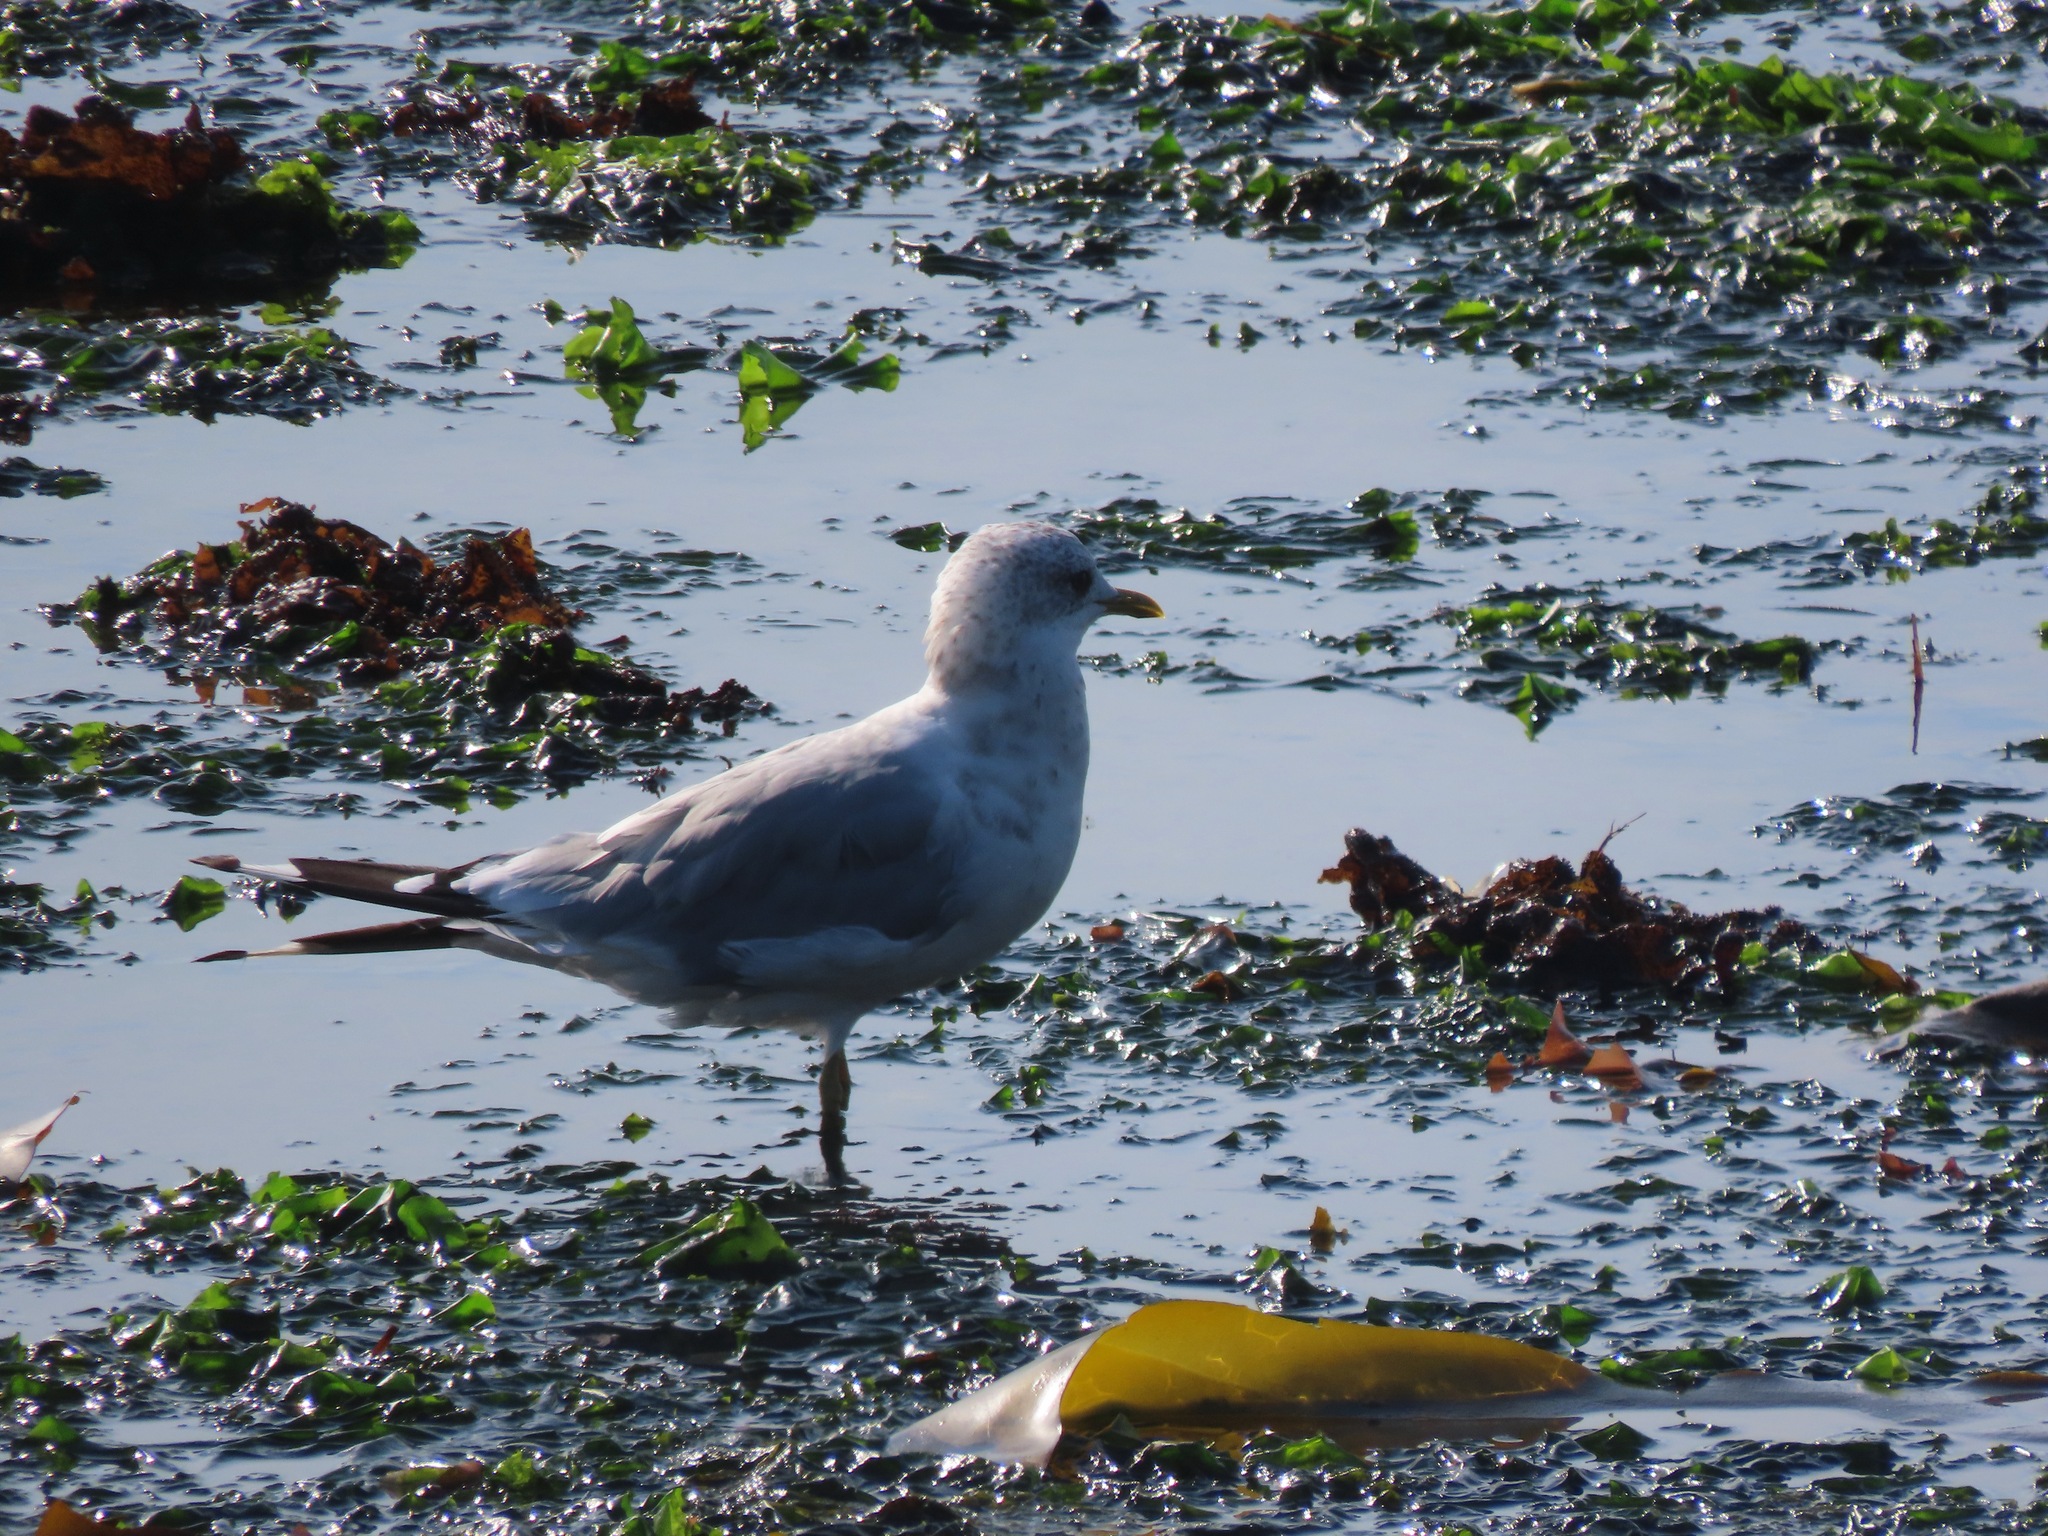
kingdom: Animalia
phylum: Chordata
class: Aves
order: Charadriiformes
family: Laridae
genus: Larus
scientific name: Larus brachyrhynchus
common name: Short-billed gull
